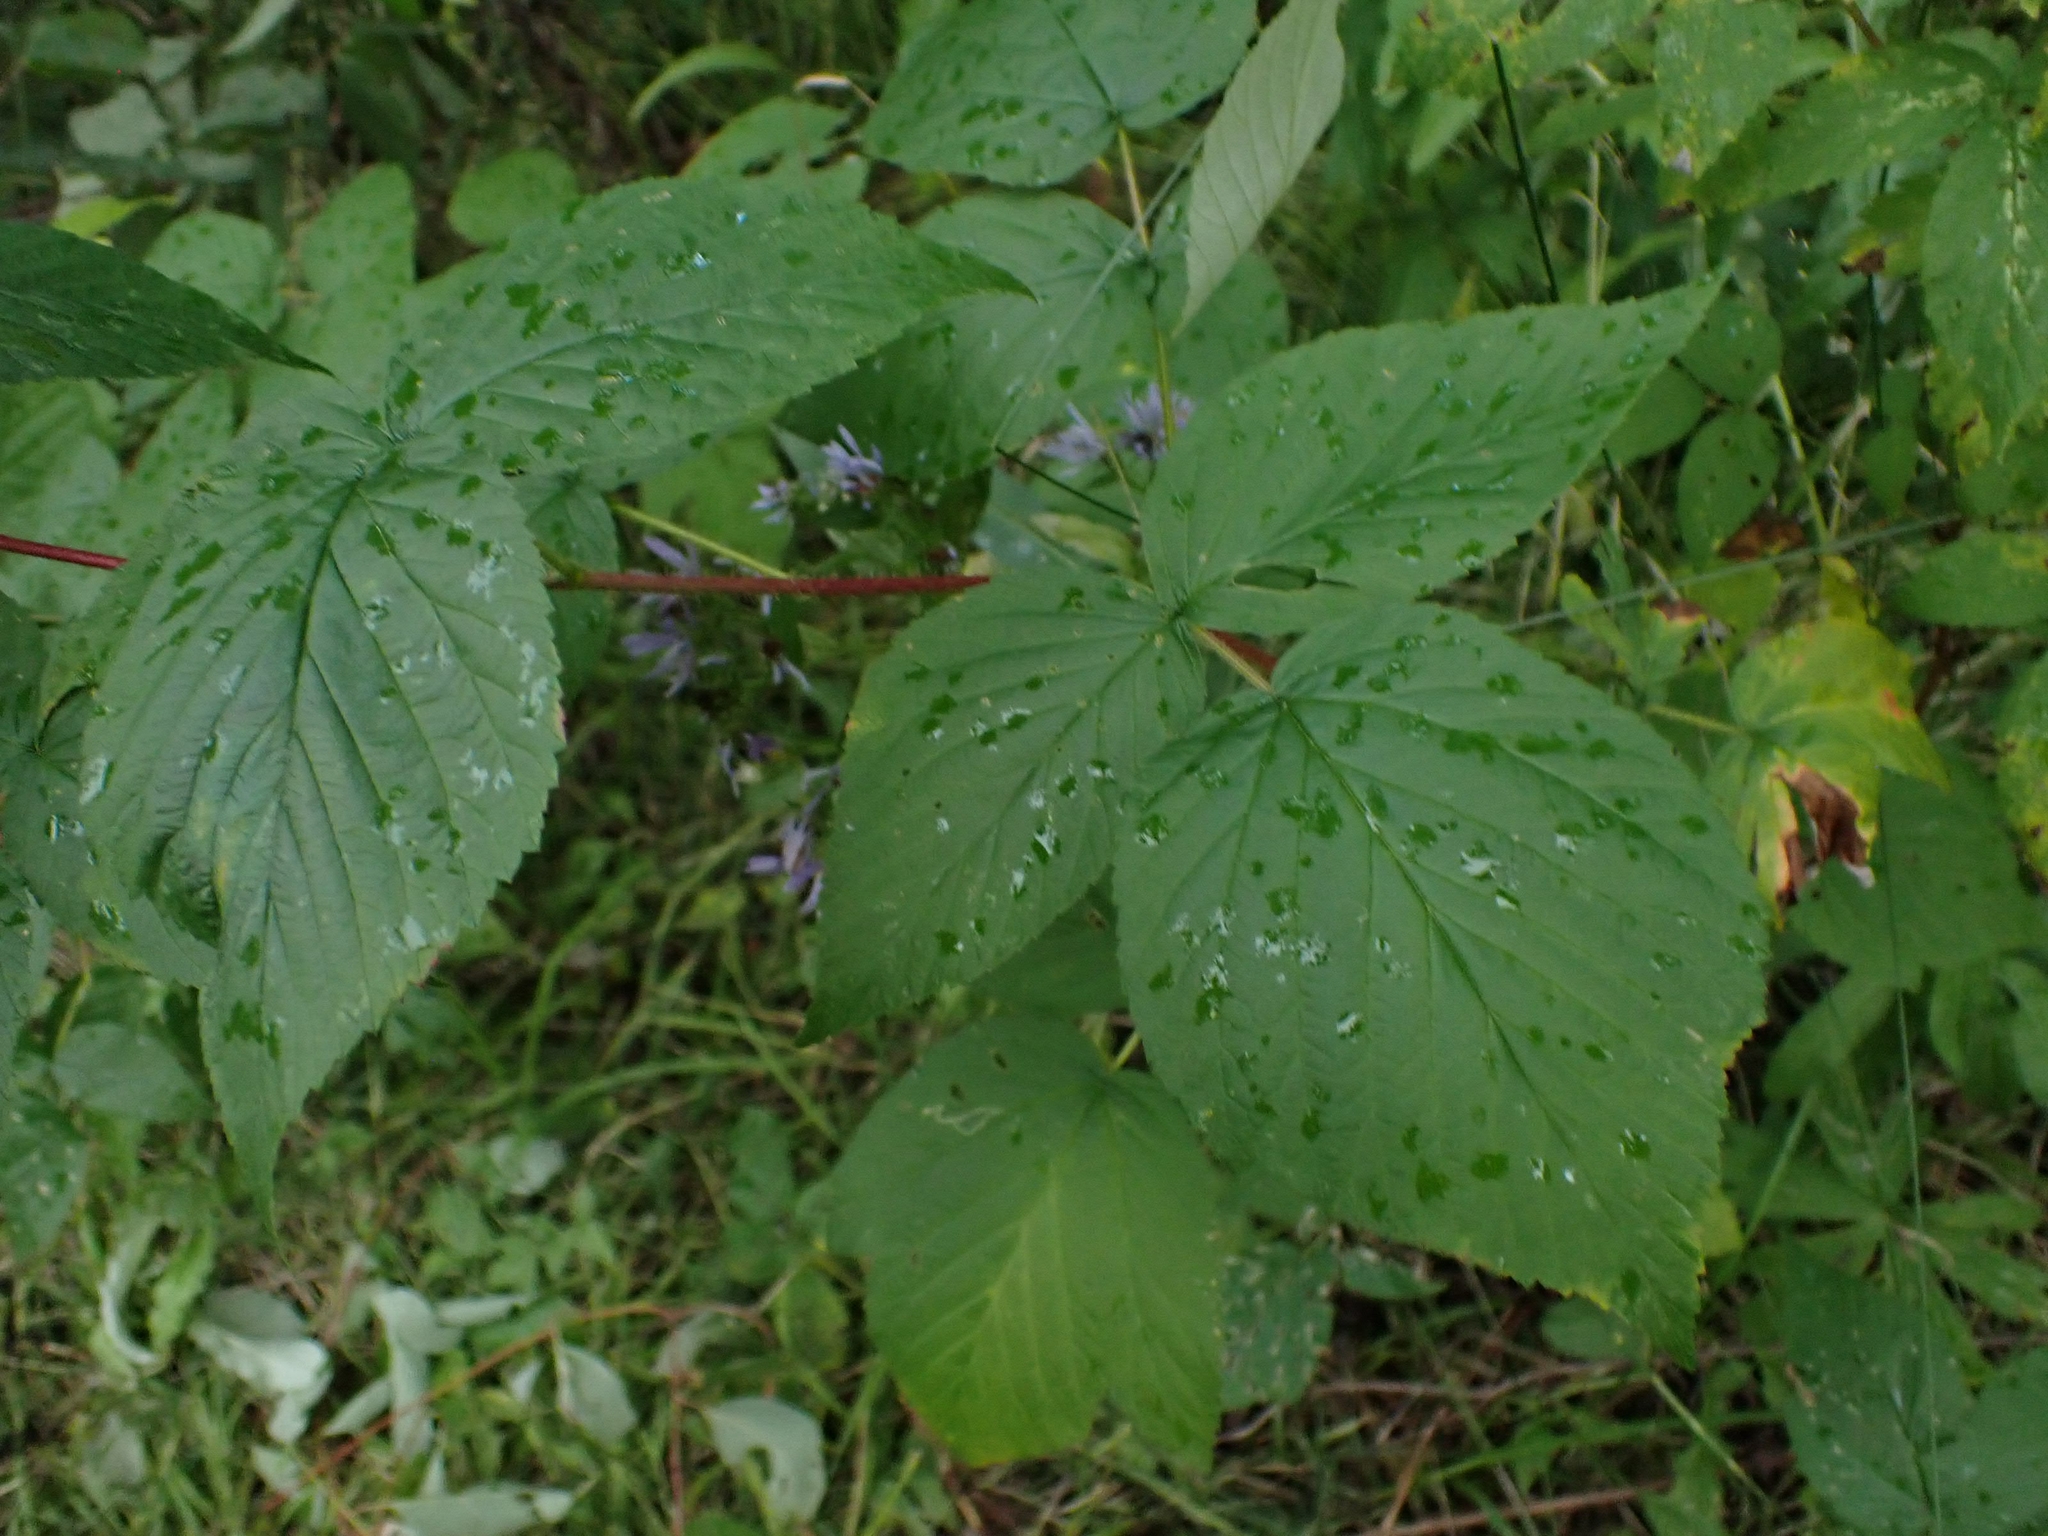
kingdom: Plantae
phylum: Tracheophyta
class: Magnoliopsida
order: Rosales
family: Rosaceae
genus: Rubus
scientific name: Rubus idaeus
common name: Raspberry
